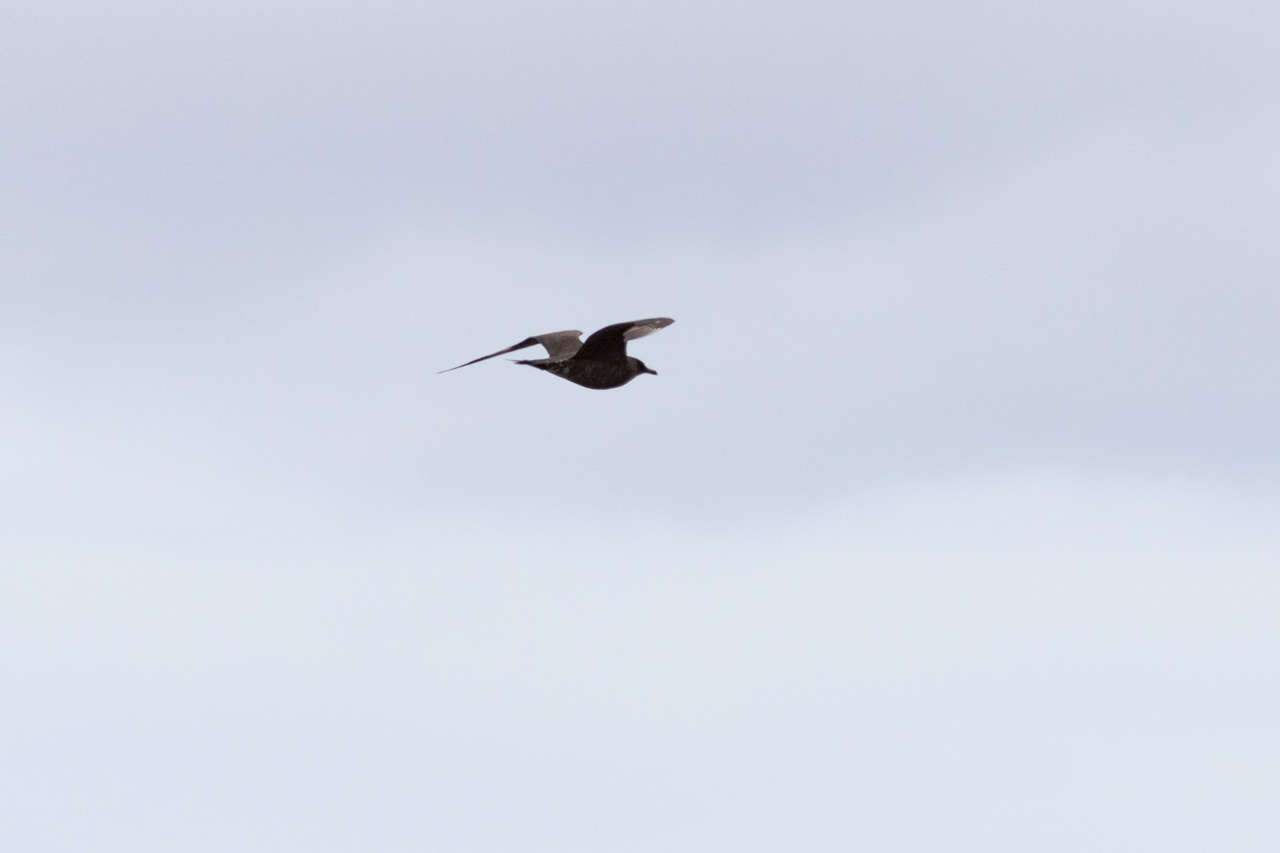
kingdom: Animalia
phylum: Chordata
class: Aves
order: Charadriiformes
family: Stercorariidae
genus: Stercorarius
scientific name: Stercorarius parasiticus
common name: Parasitic jaeger
